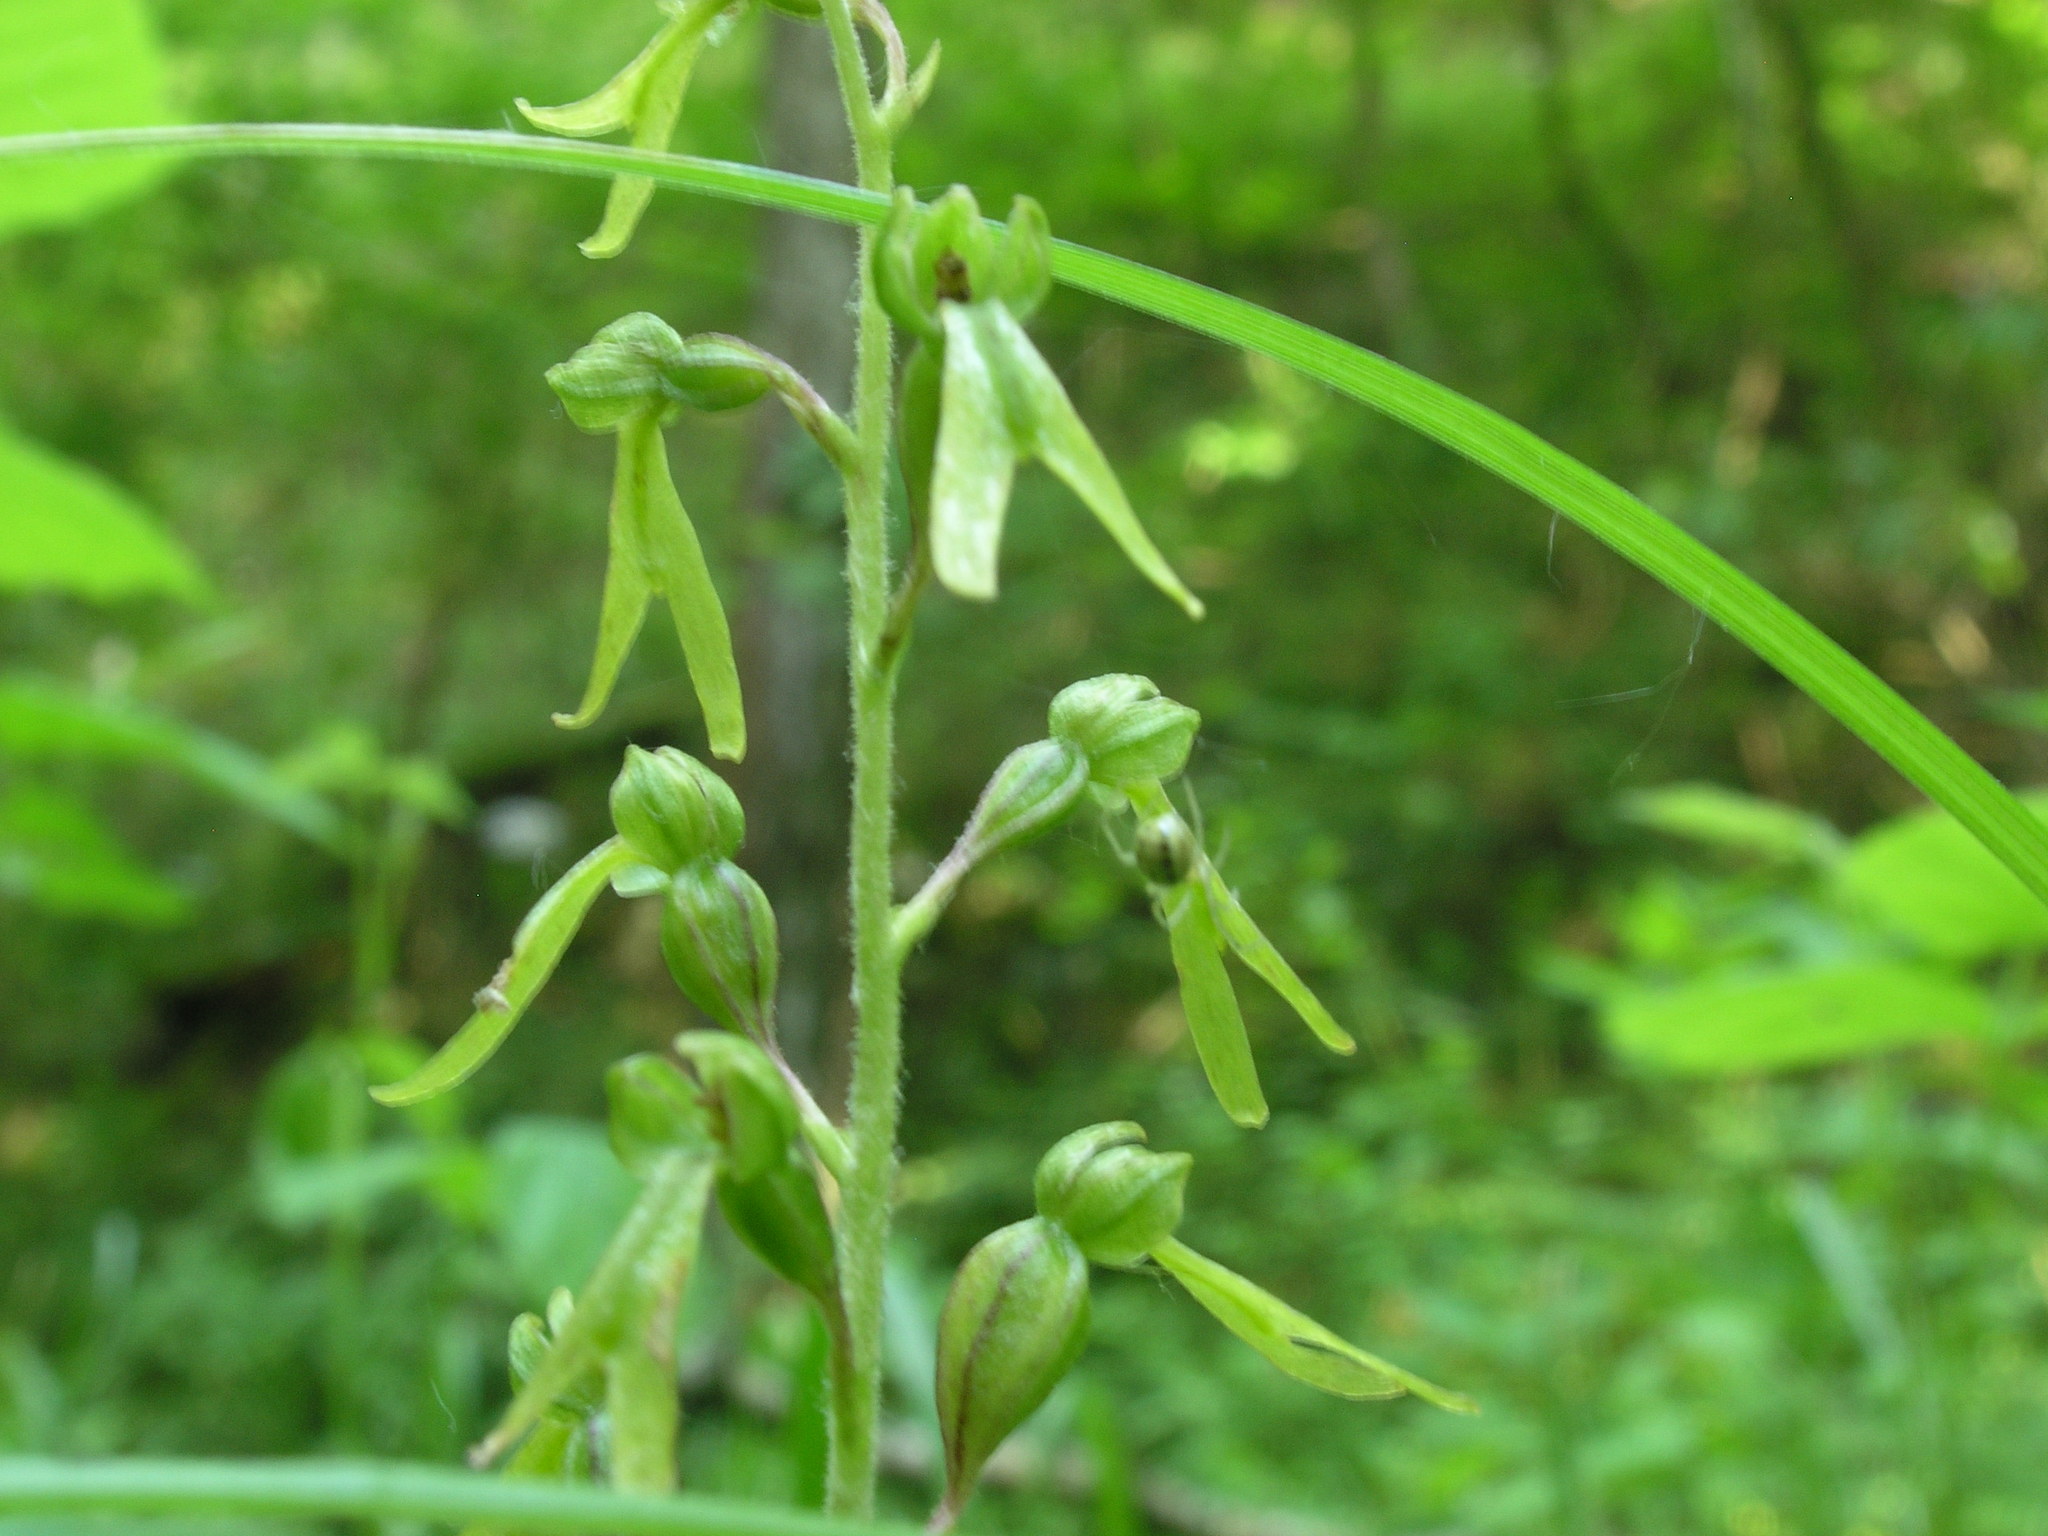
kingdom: Plantae
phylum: Tracheophyta
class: Liliopsida
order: Asparagales
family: Orchidaceae
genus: Neottia
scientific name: Neottia ovata
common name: Common twayblade
